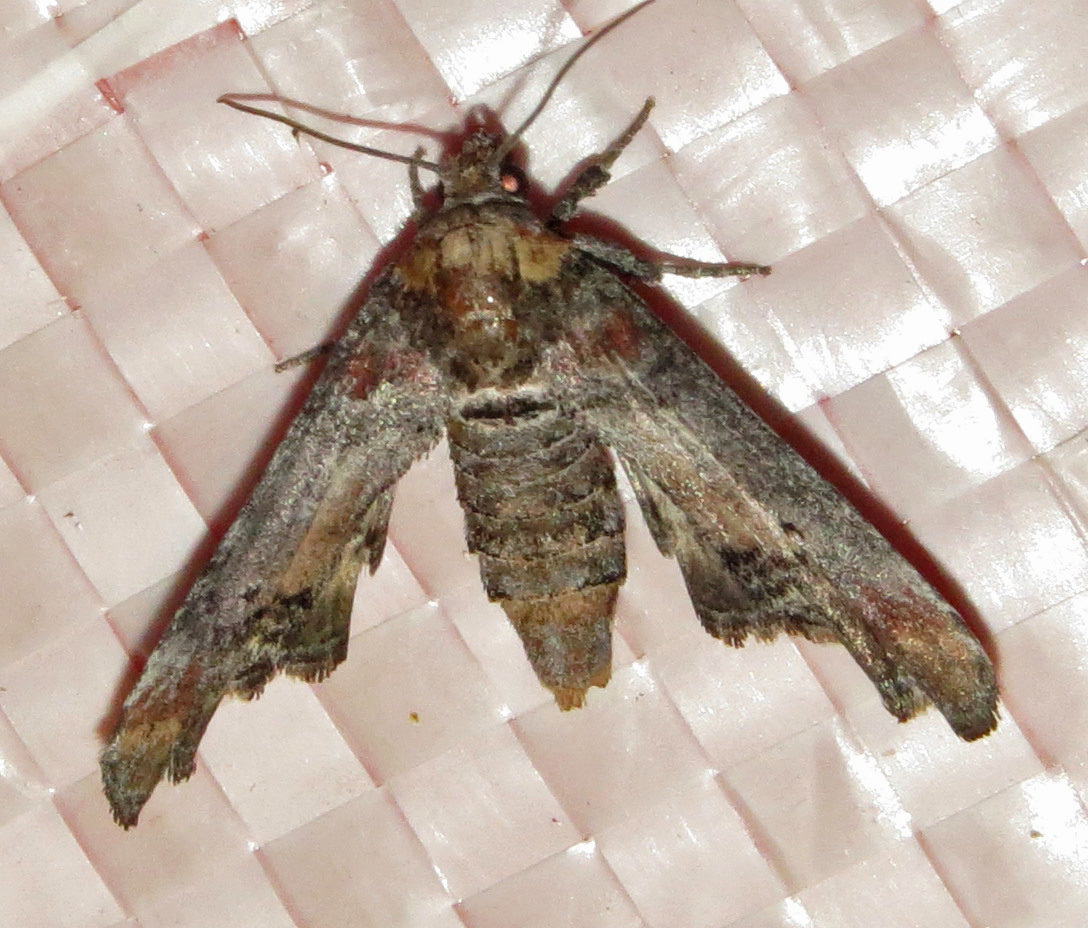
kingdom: Animalia
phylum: Arthropoda
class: Insecta
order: Lepidoptera
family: Euteliidae
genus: Marathyssa
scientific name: Marathyssa inficita
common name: Dark marathyssa moth
